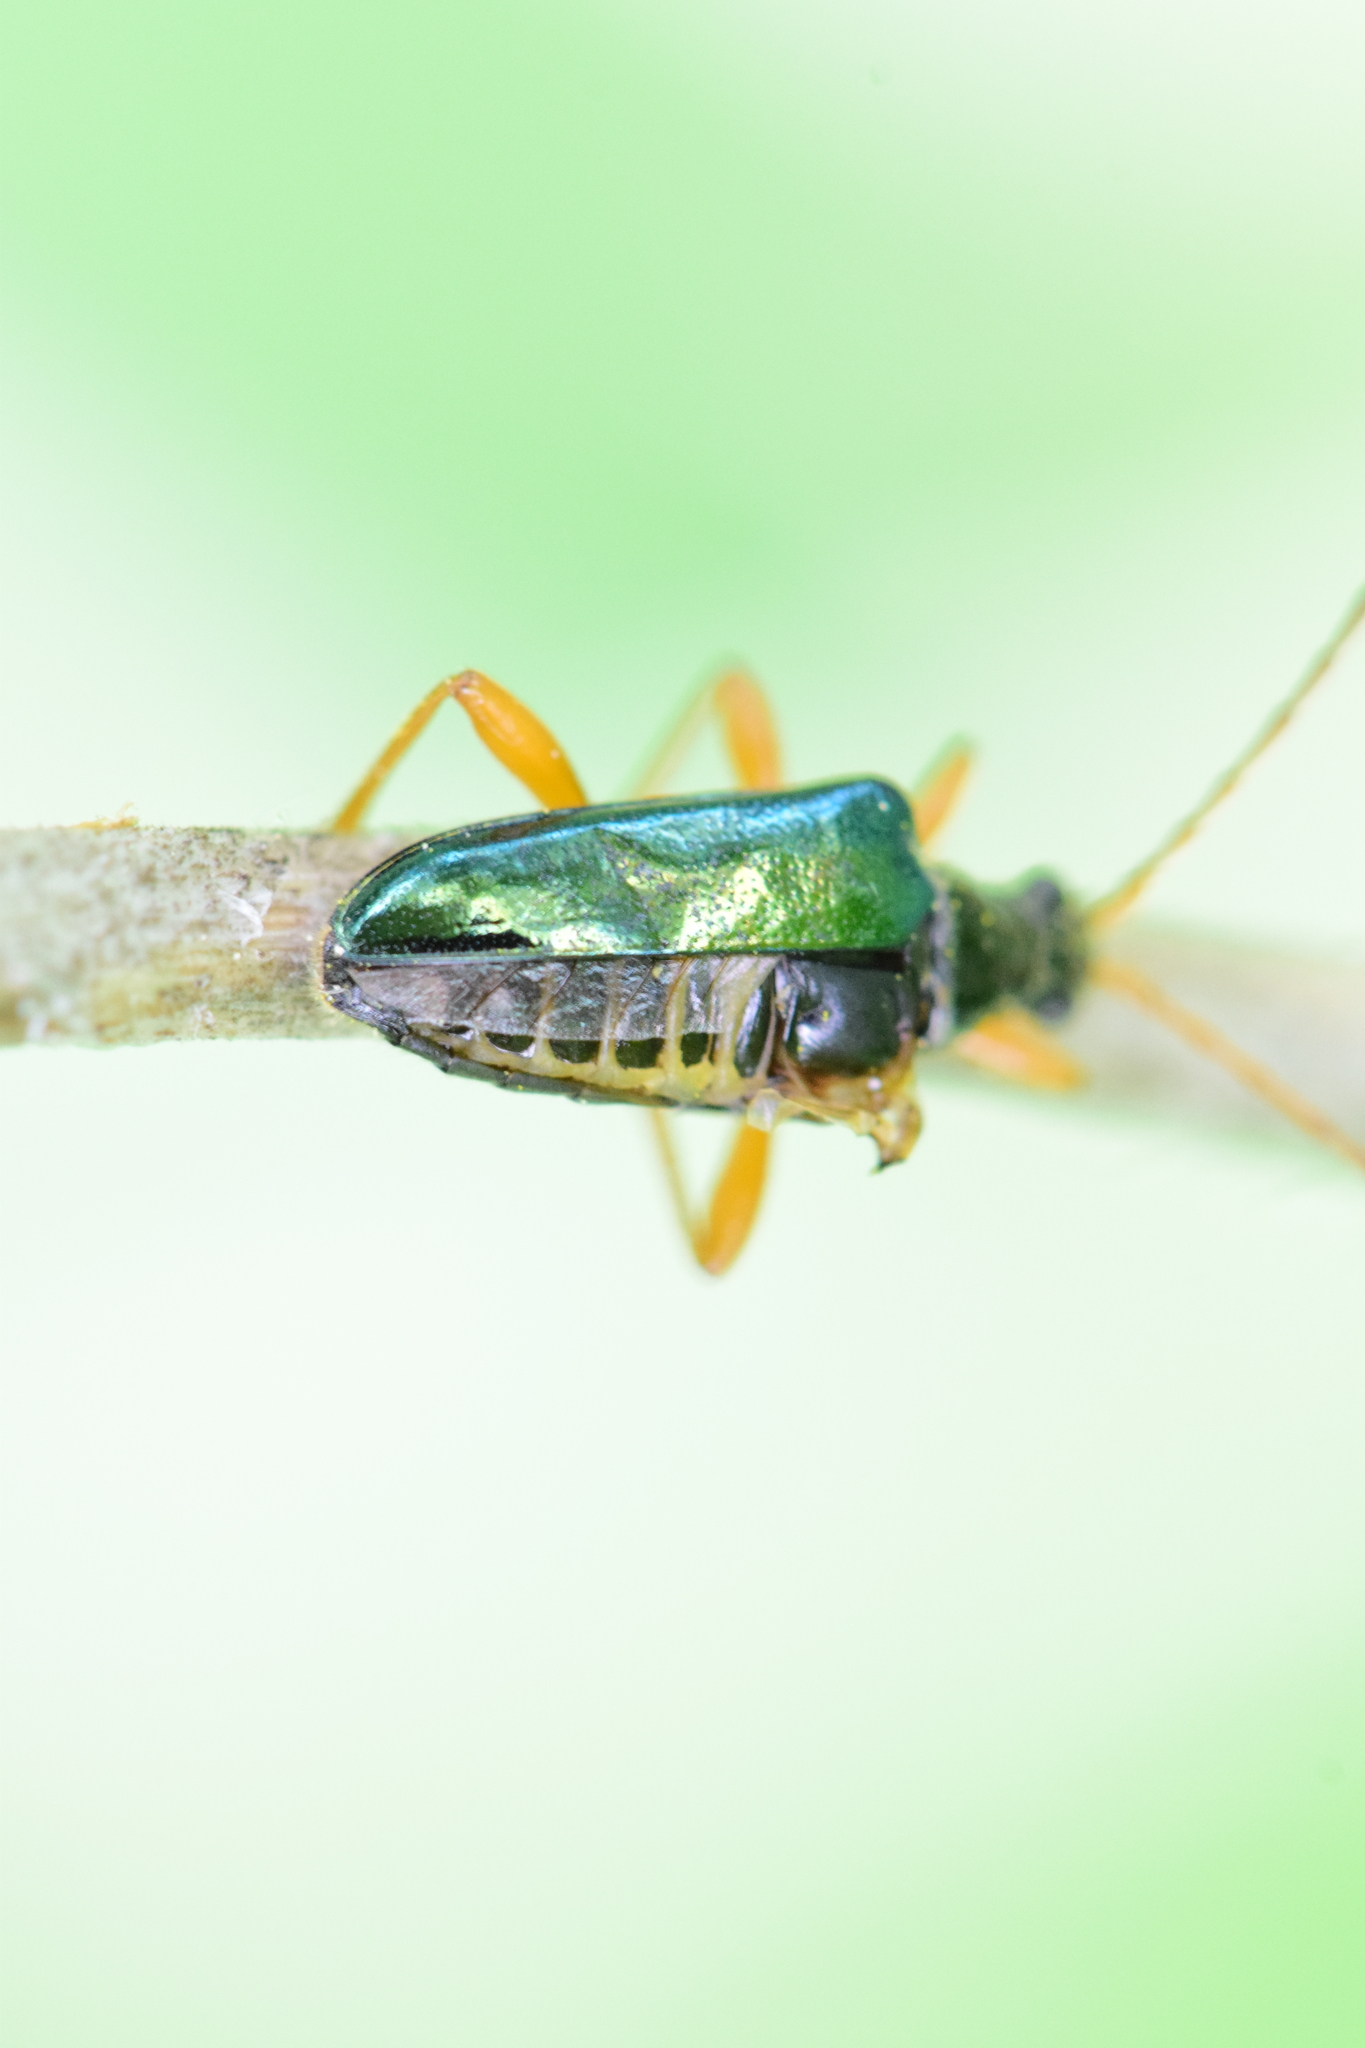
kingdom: Animalia
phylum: Arthropoda
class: Insecta
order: Coleoptera
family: Cerambycidae
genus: Gaurotes
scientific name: Gaurotes cyanipennis
